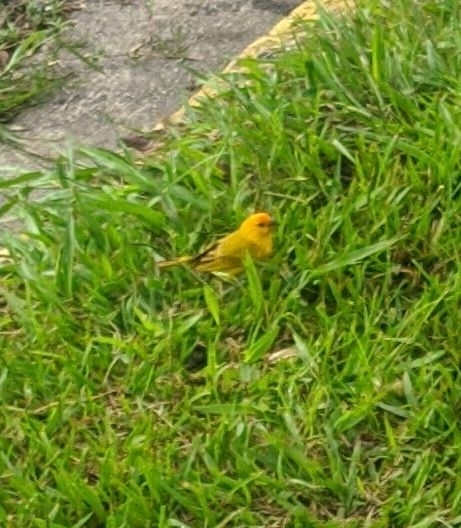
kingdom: Animalia
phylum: Chordata
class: Aves
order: Passeriformes
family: Thraupidae
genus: Sicalis
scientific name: Sicalis flaveola
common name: Saffron finch
